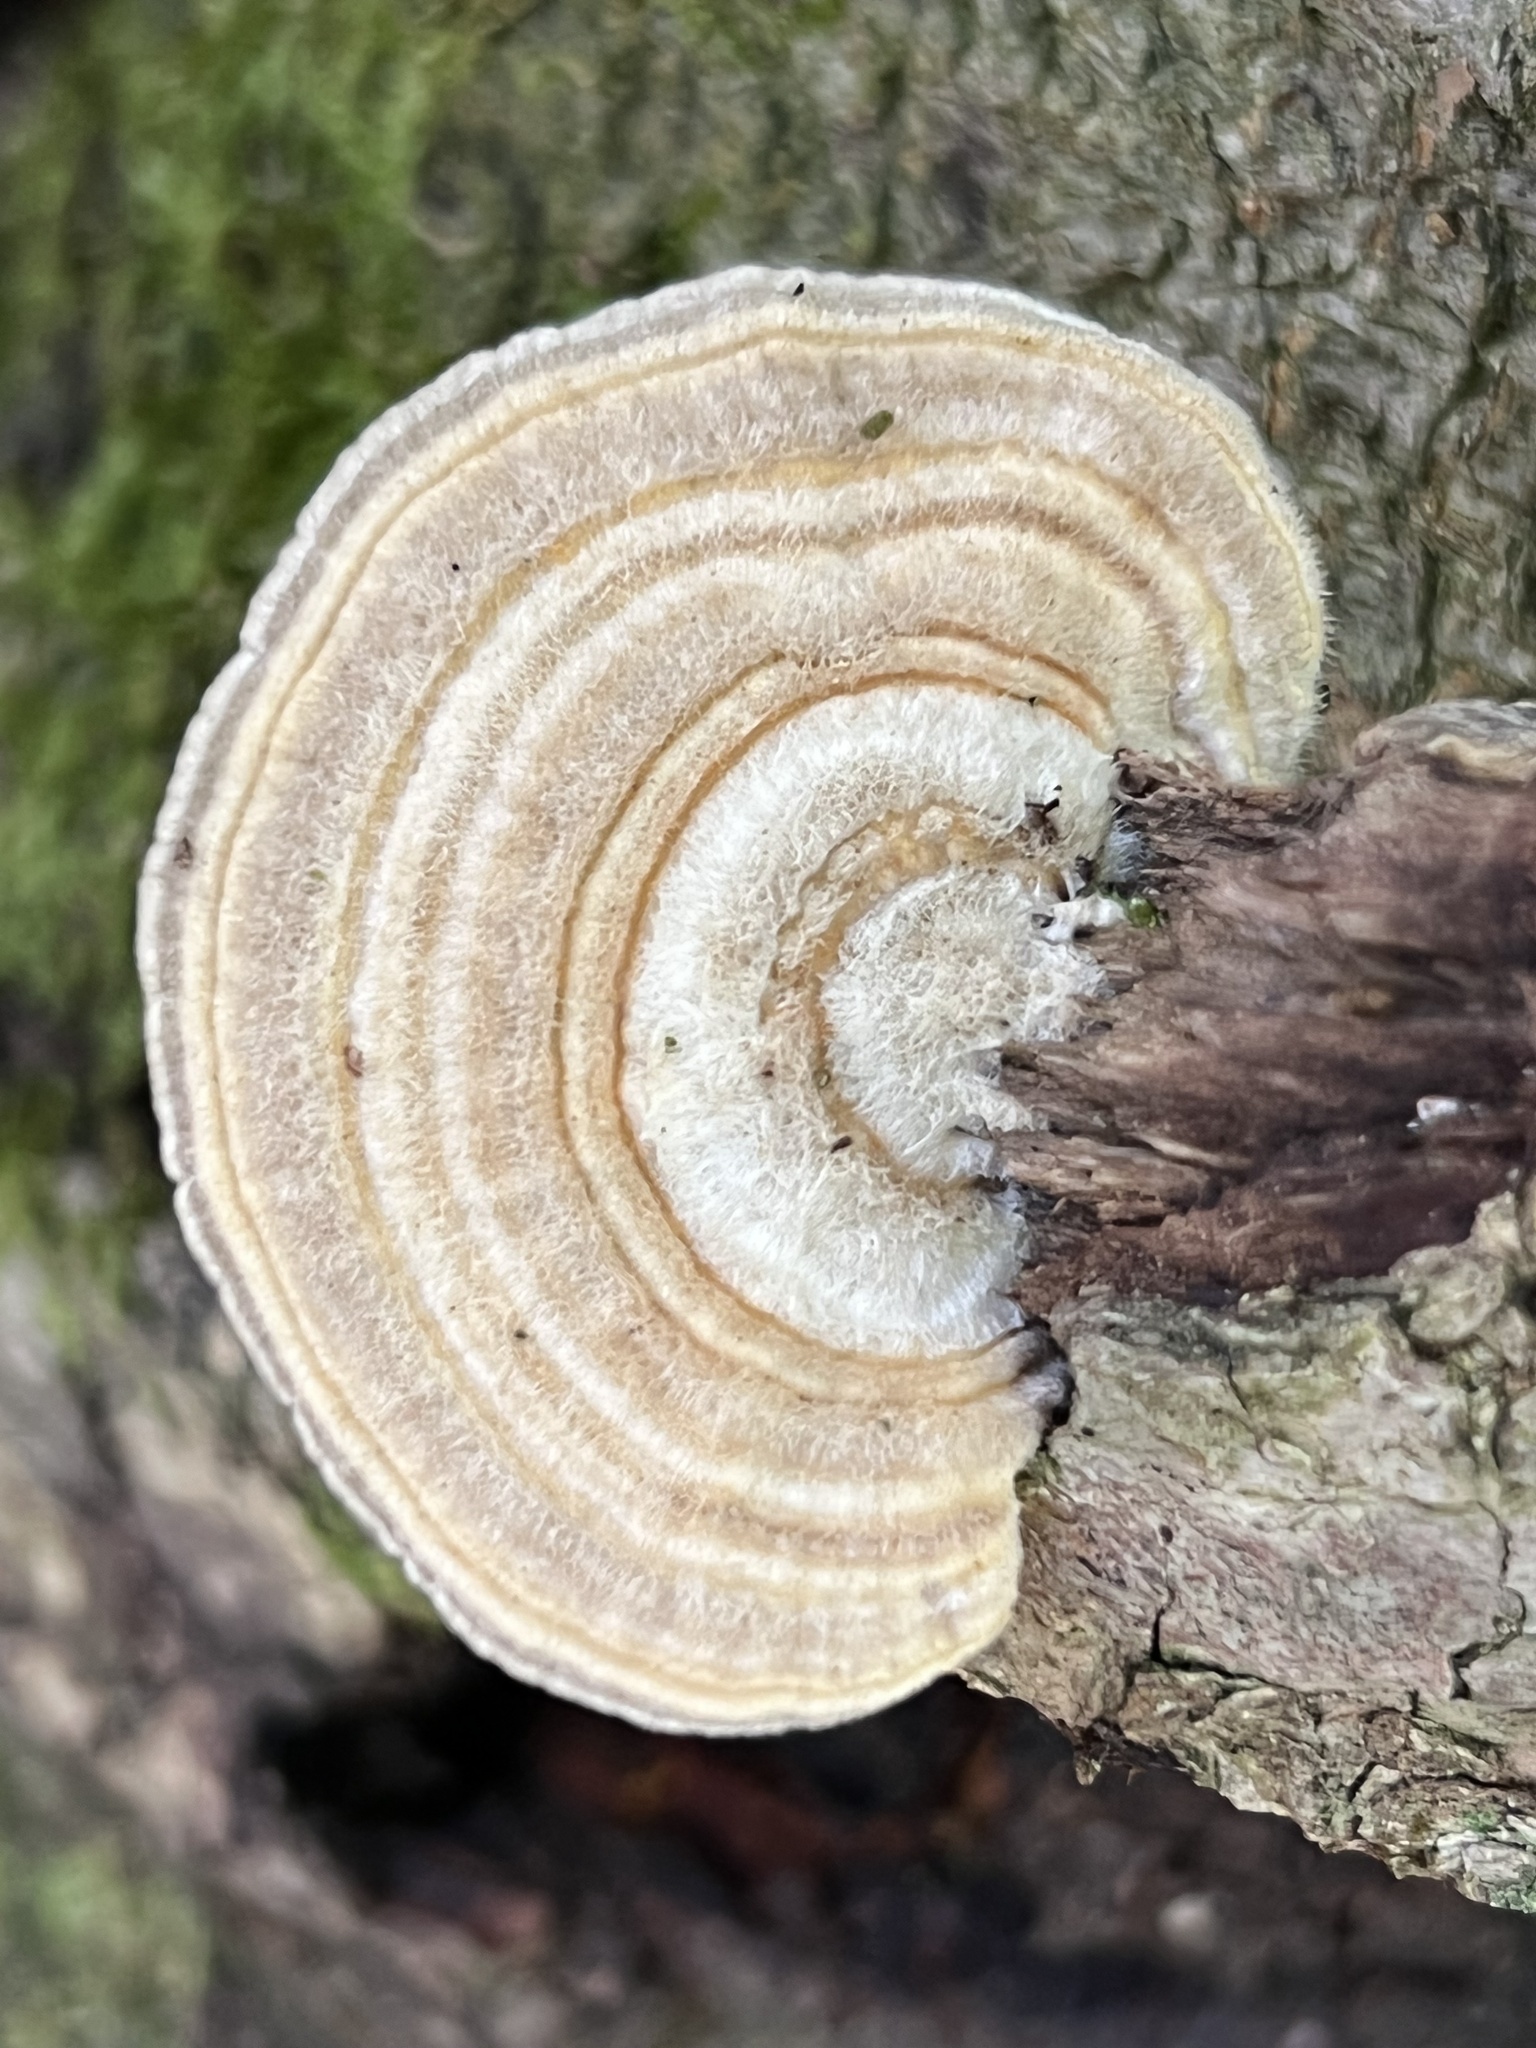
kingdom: Fungi
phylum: Basidiomycota
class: Agaricomycetes
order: Polyporales
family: Polyporaceae
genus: Lenzites
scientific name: Lenzites betulinus
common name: Birch mazegill
